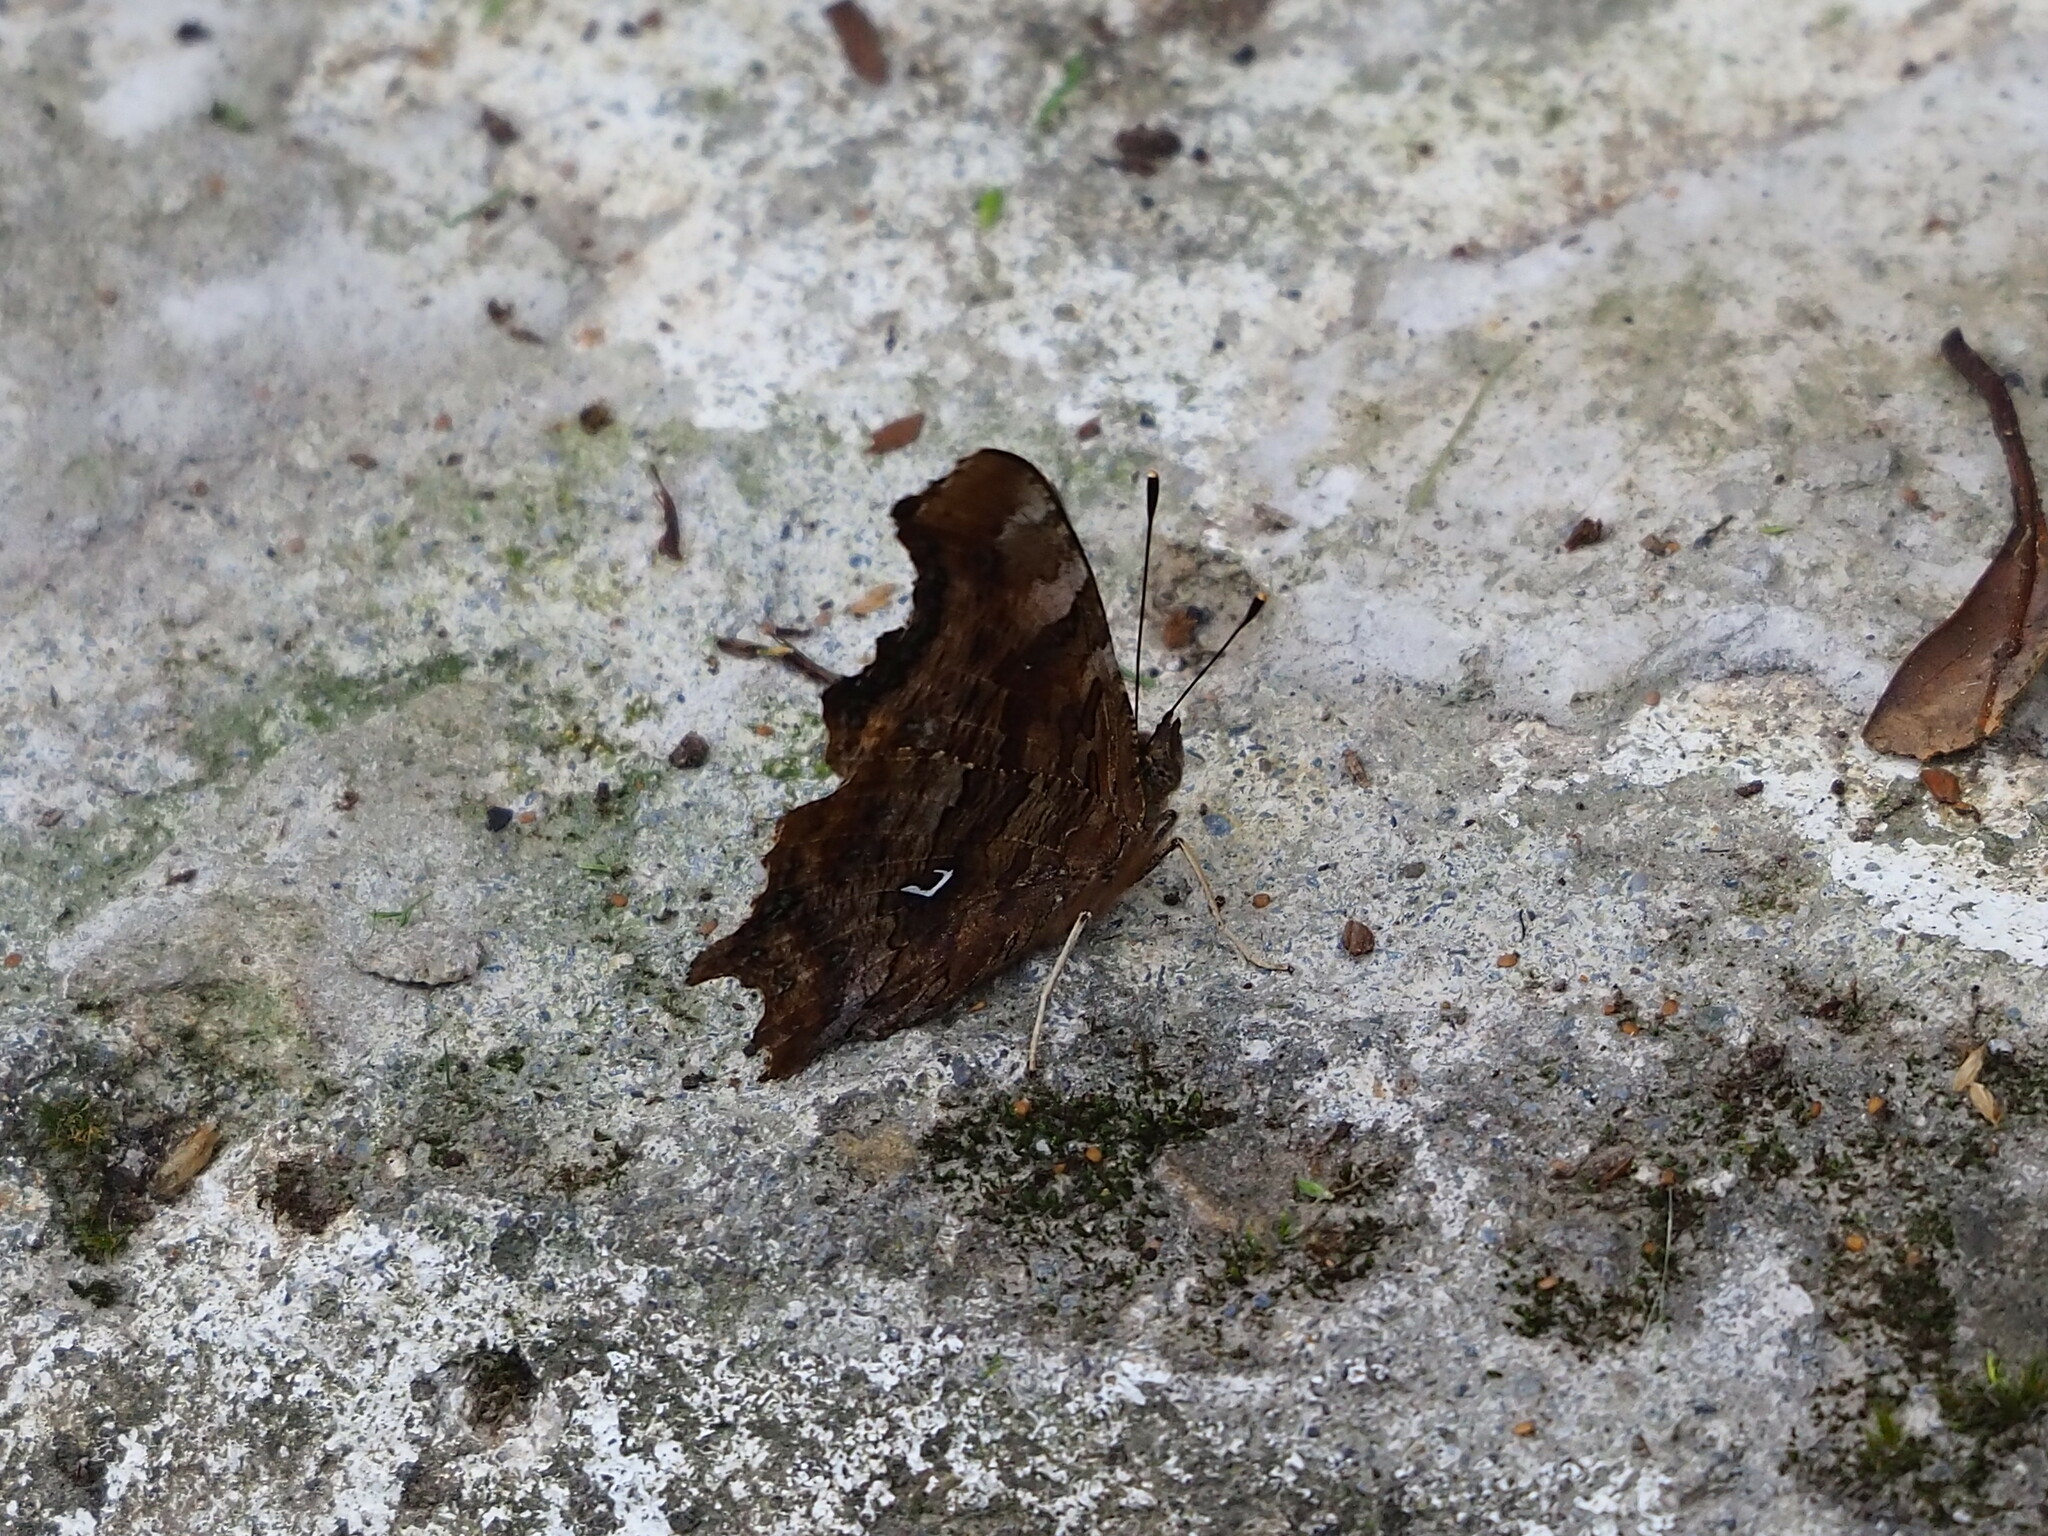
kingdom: Animalia
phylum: Arthropoda
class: Insecta
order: Lepidoptera
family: Nymphalidae
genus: Polygonia
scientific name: Polygonia c-album
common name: Comma
